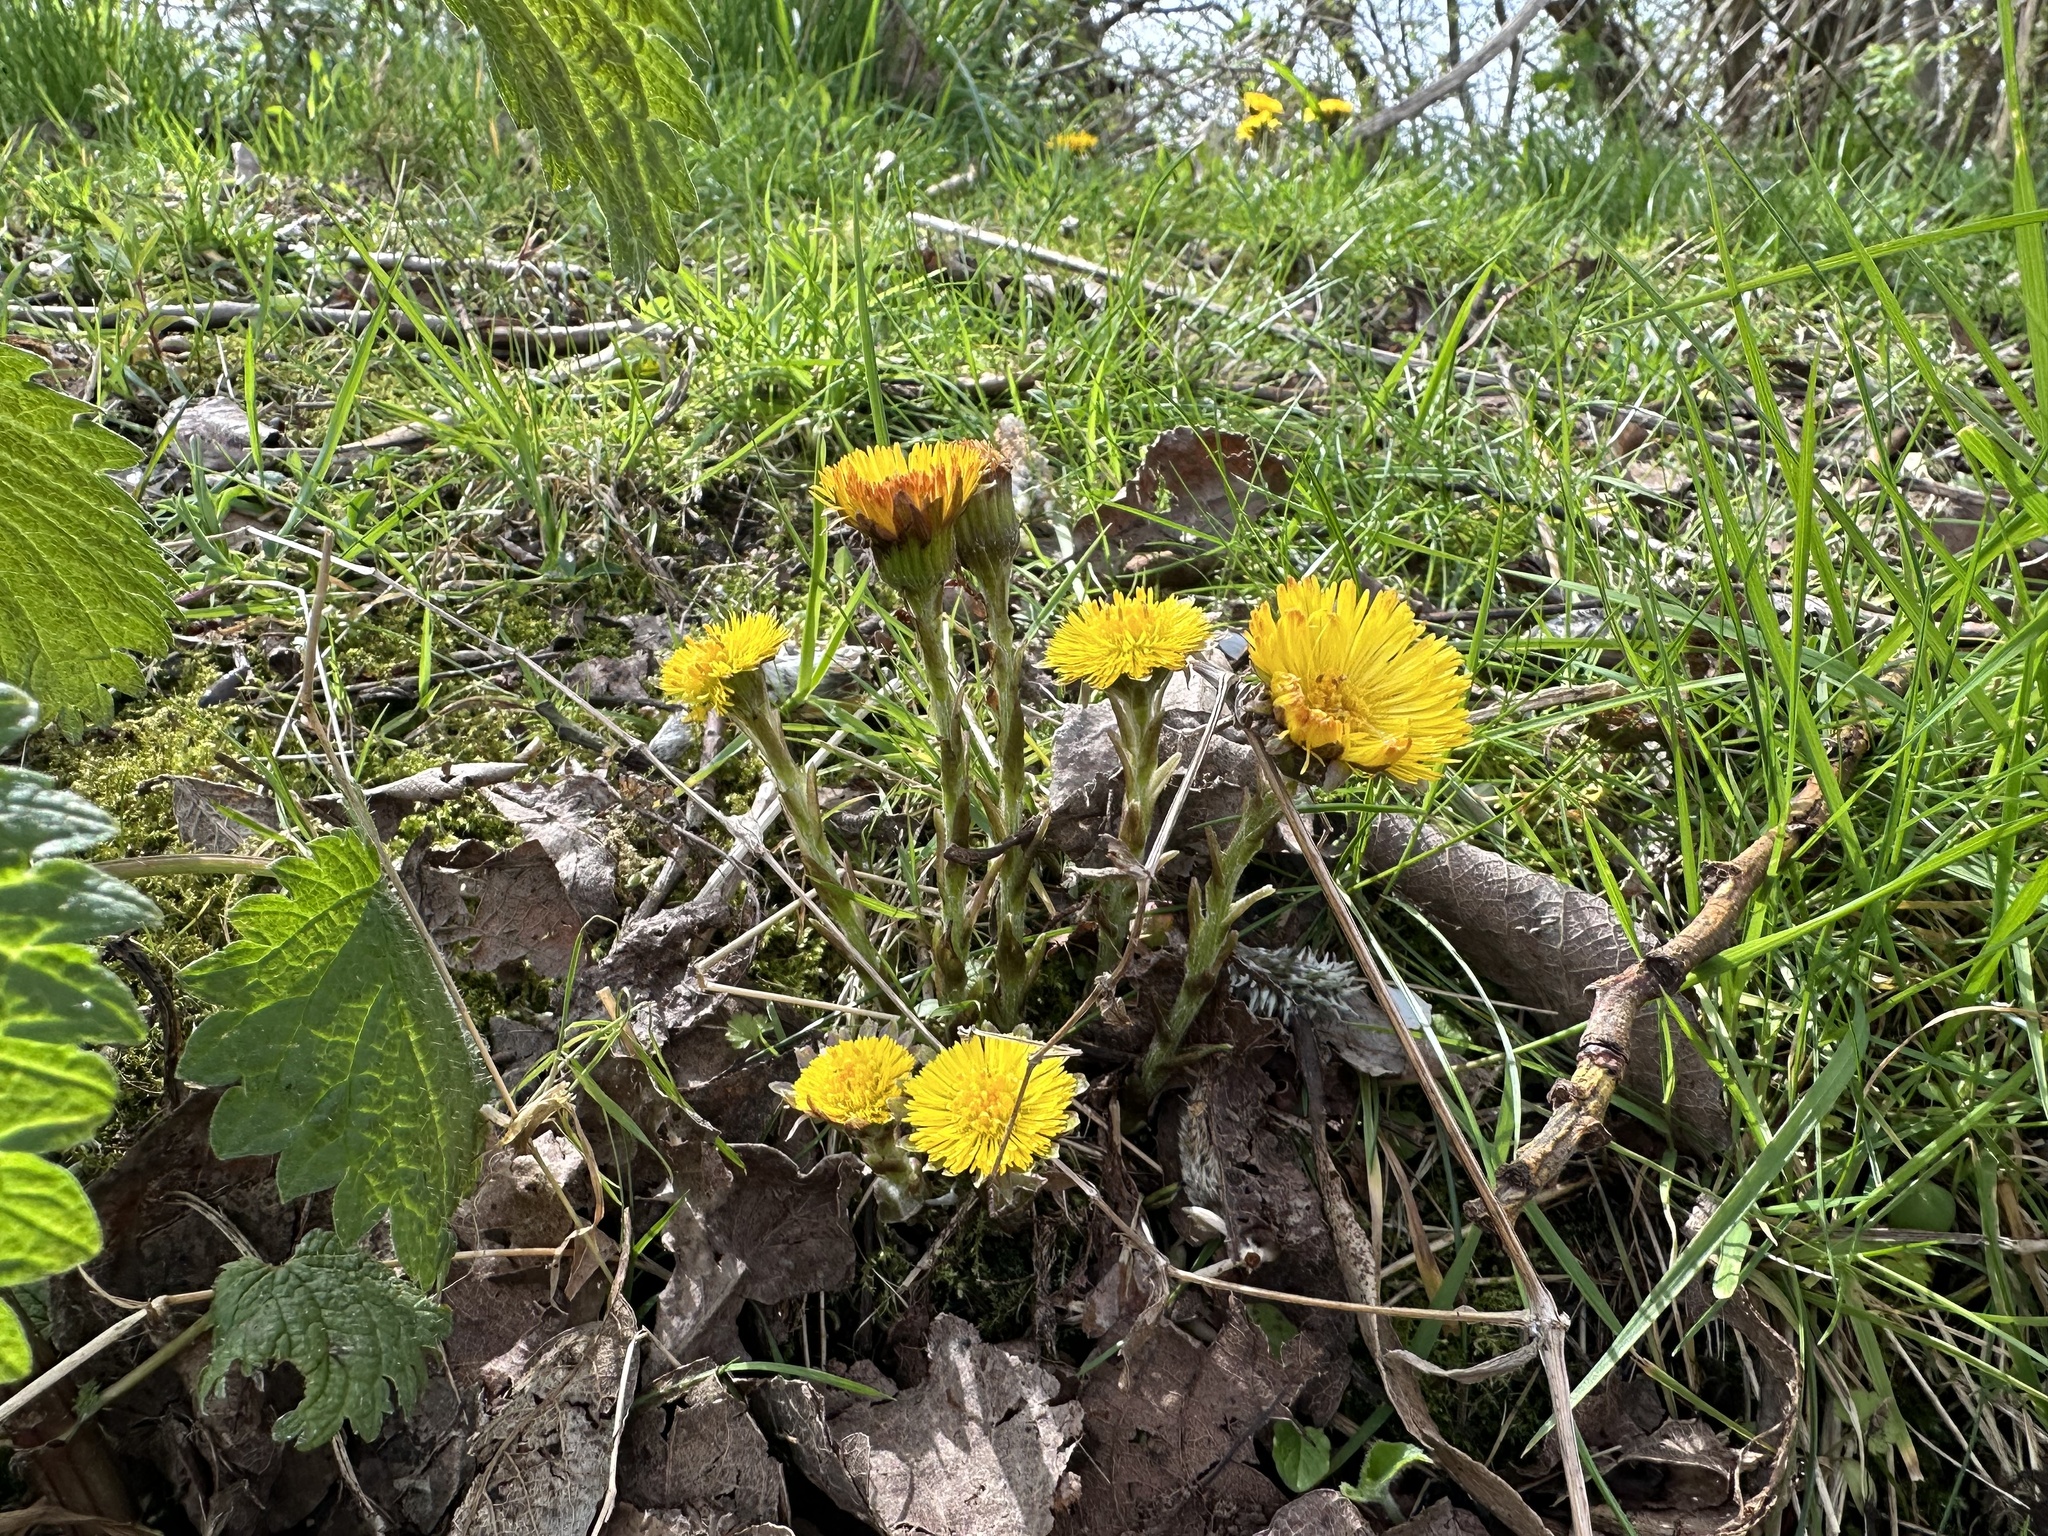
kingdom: Plantae
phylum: Tracheophyta
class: Magnoliopsida
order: Asterales
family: Asteraceae
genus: Tussilago
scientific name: Tussilago farfara
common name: Coltsfoot
